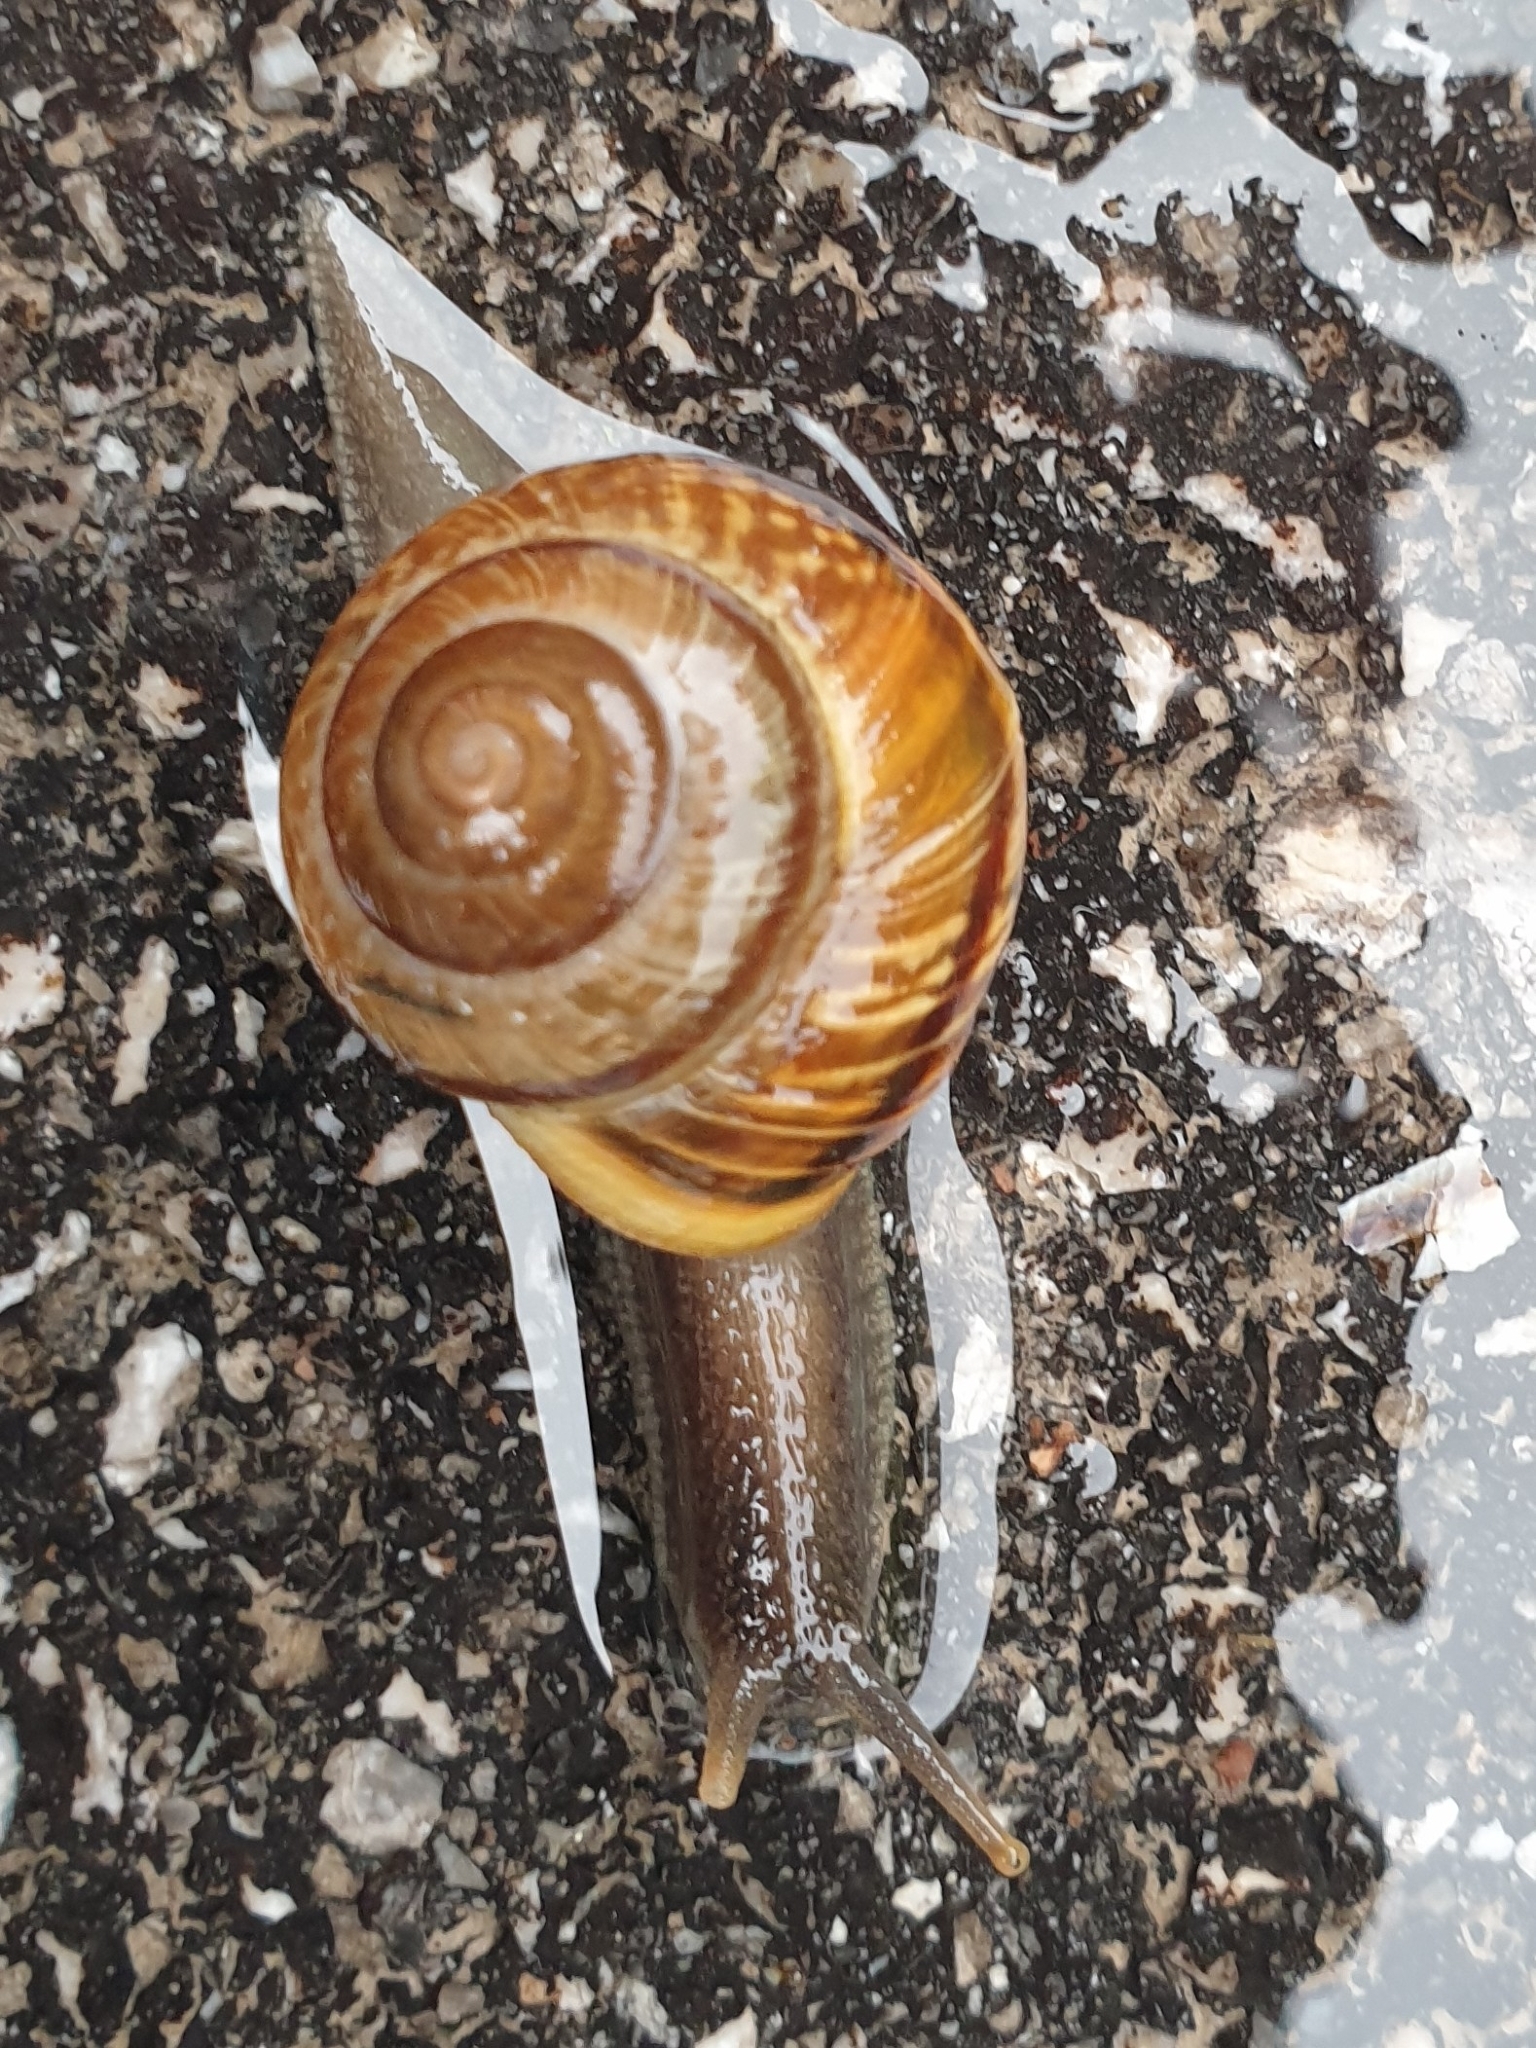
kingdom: Animalia
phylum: Mollusca
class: Gastropoda
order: Stylommatophora
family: Helicidae
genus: Arianta
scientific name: Arianta arbustorum
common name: Copse snail
